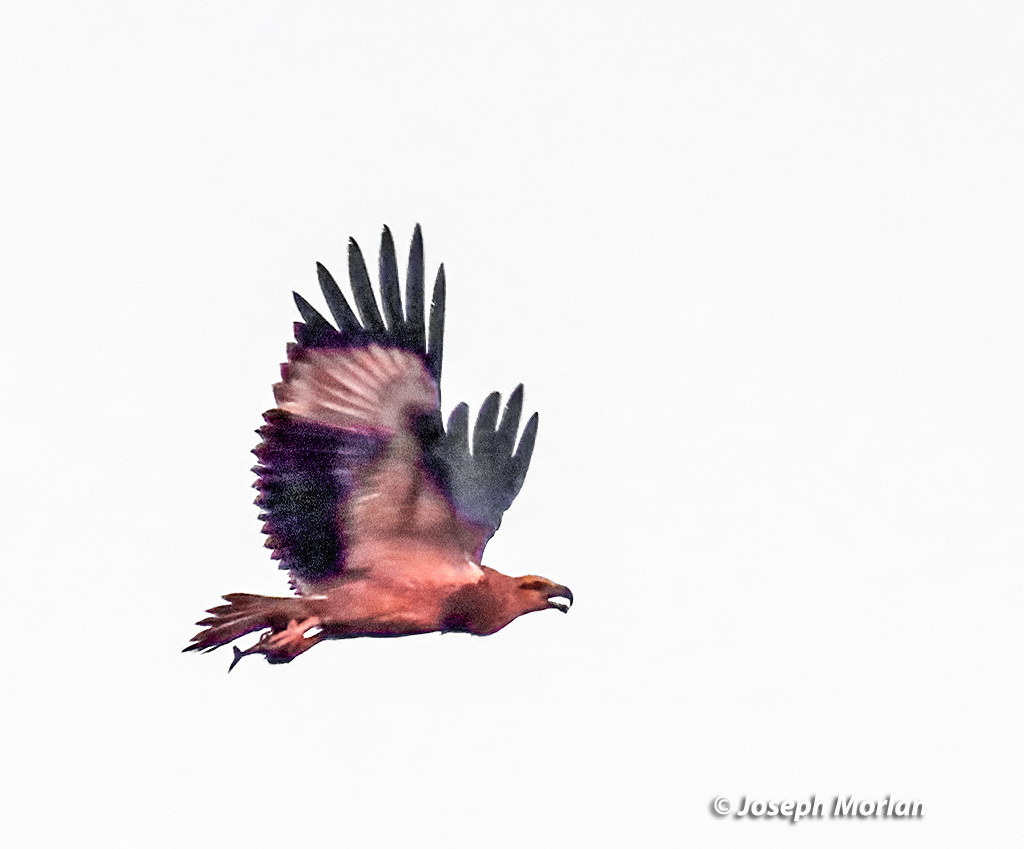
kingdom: Animalia
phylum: Chordata
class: Aves
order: Accipitriformes
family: Accipitridae
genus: Haliaeetus
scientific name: Haliaeetus leucogaster
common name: White-bellied sea eagle
